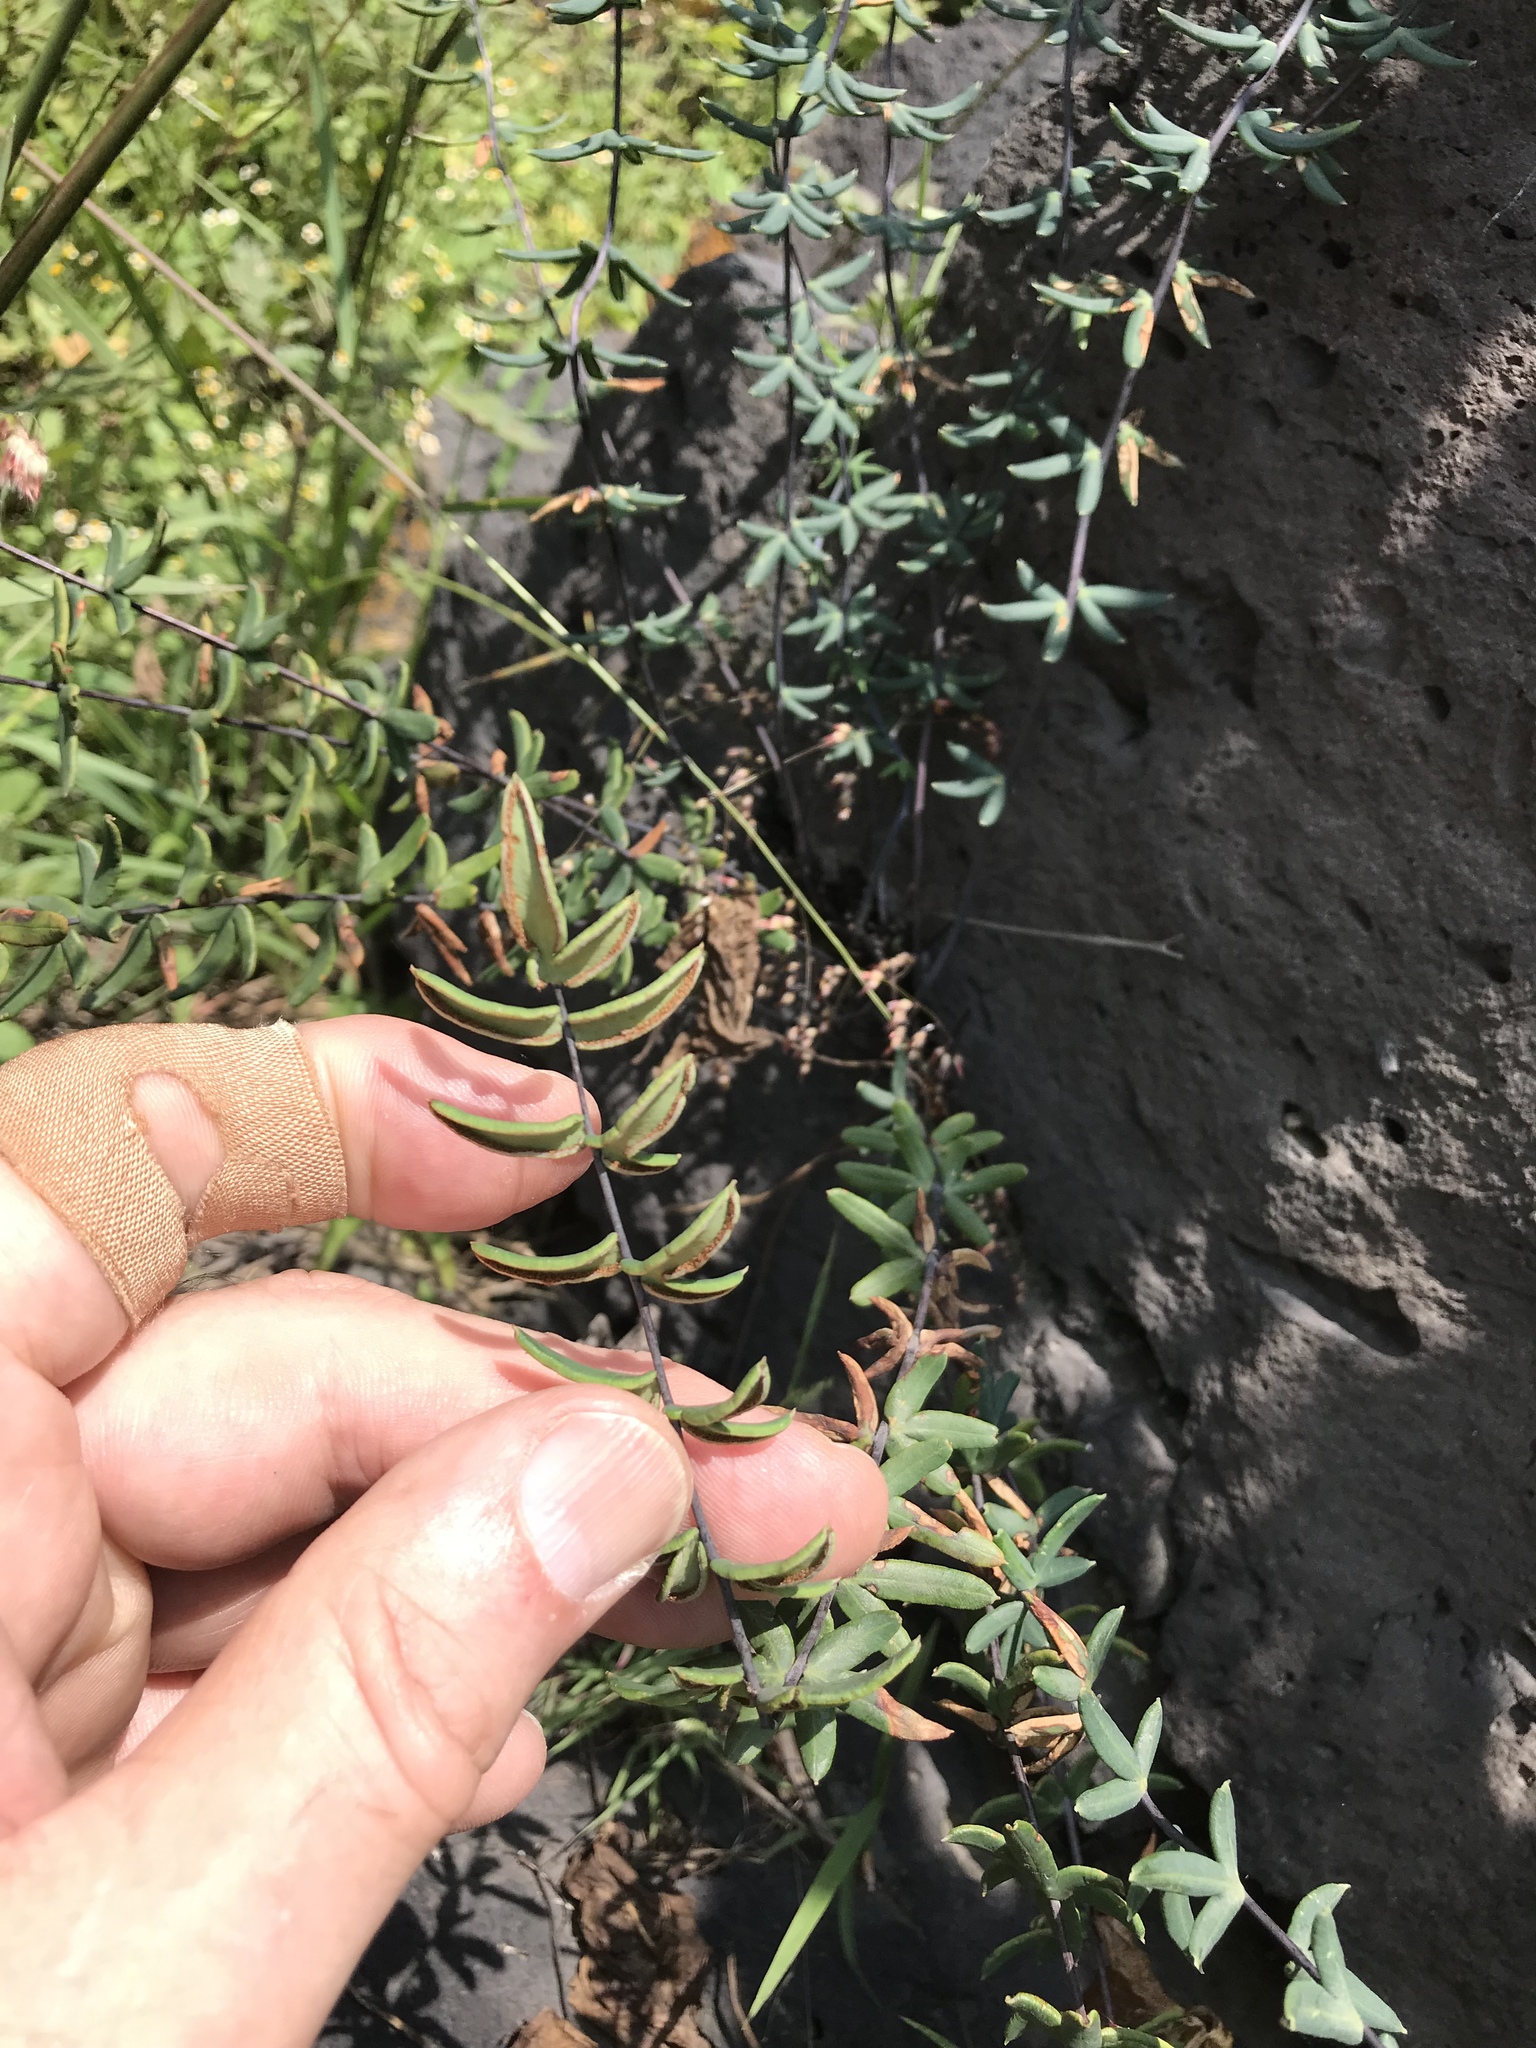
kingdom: Plantae
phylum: Tracheophyta
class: Polypodiopsida
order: Polypodiales
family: Pteridaceae
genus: Pellaea
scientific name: Pellaea ternifolia
